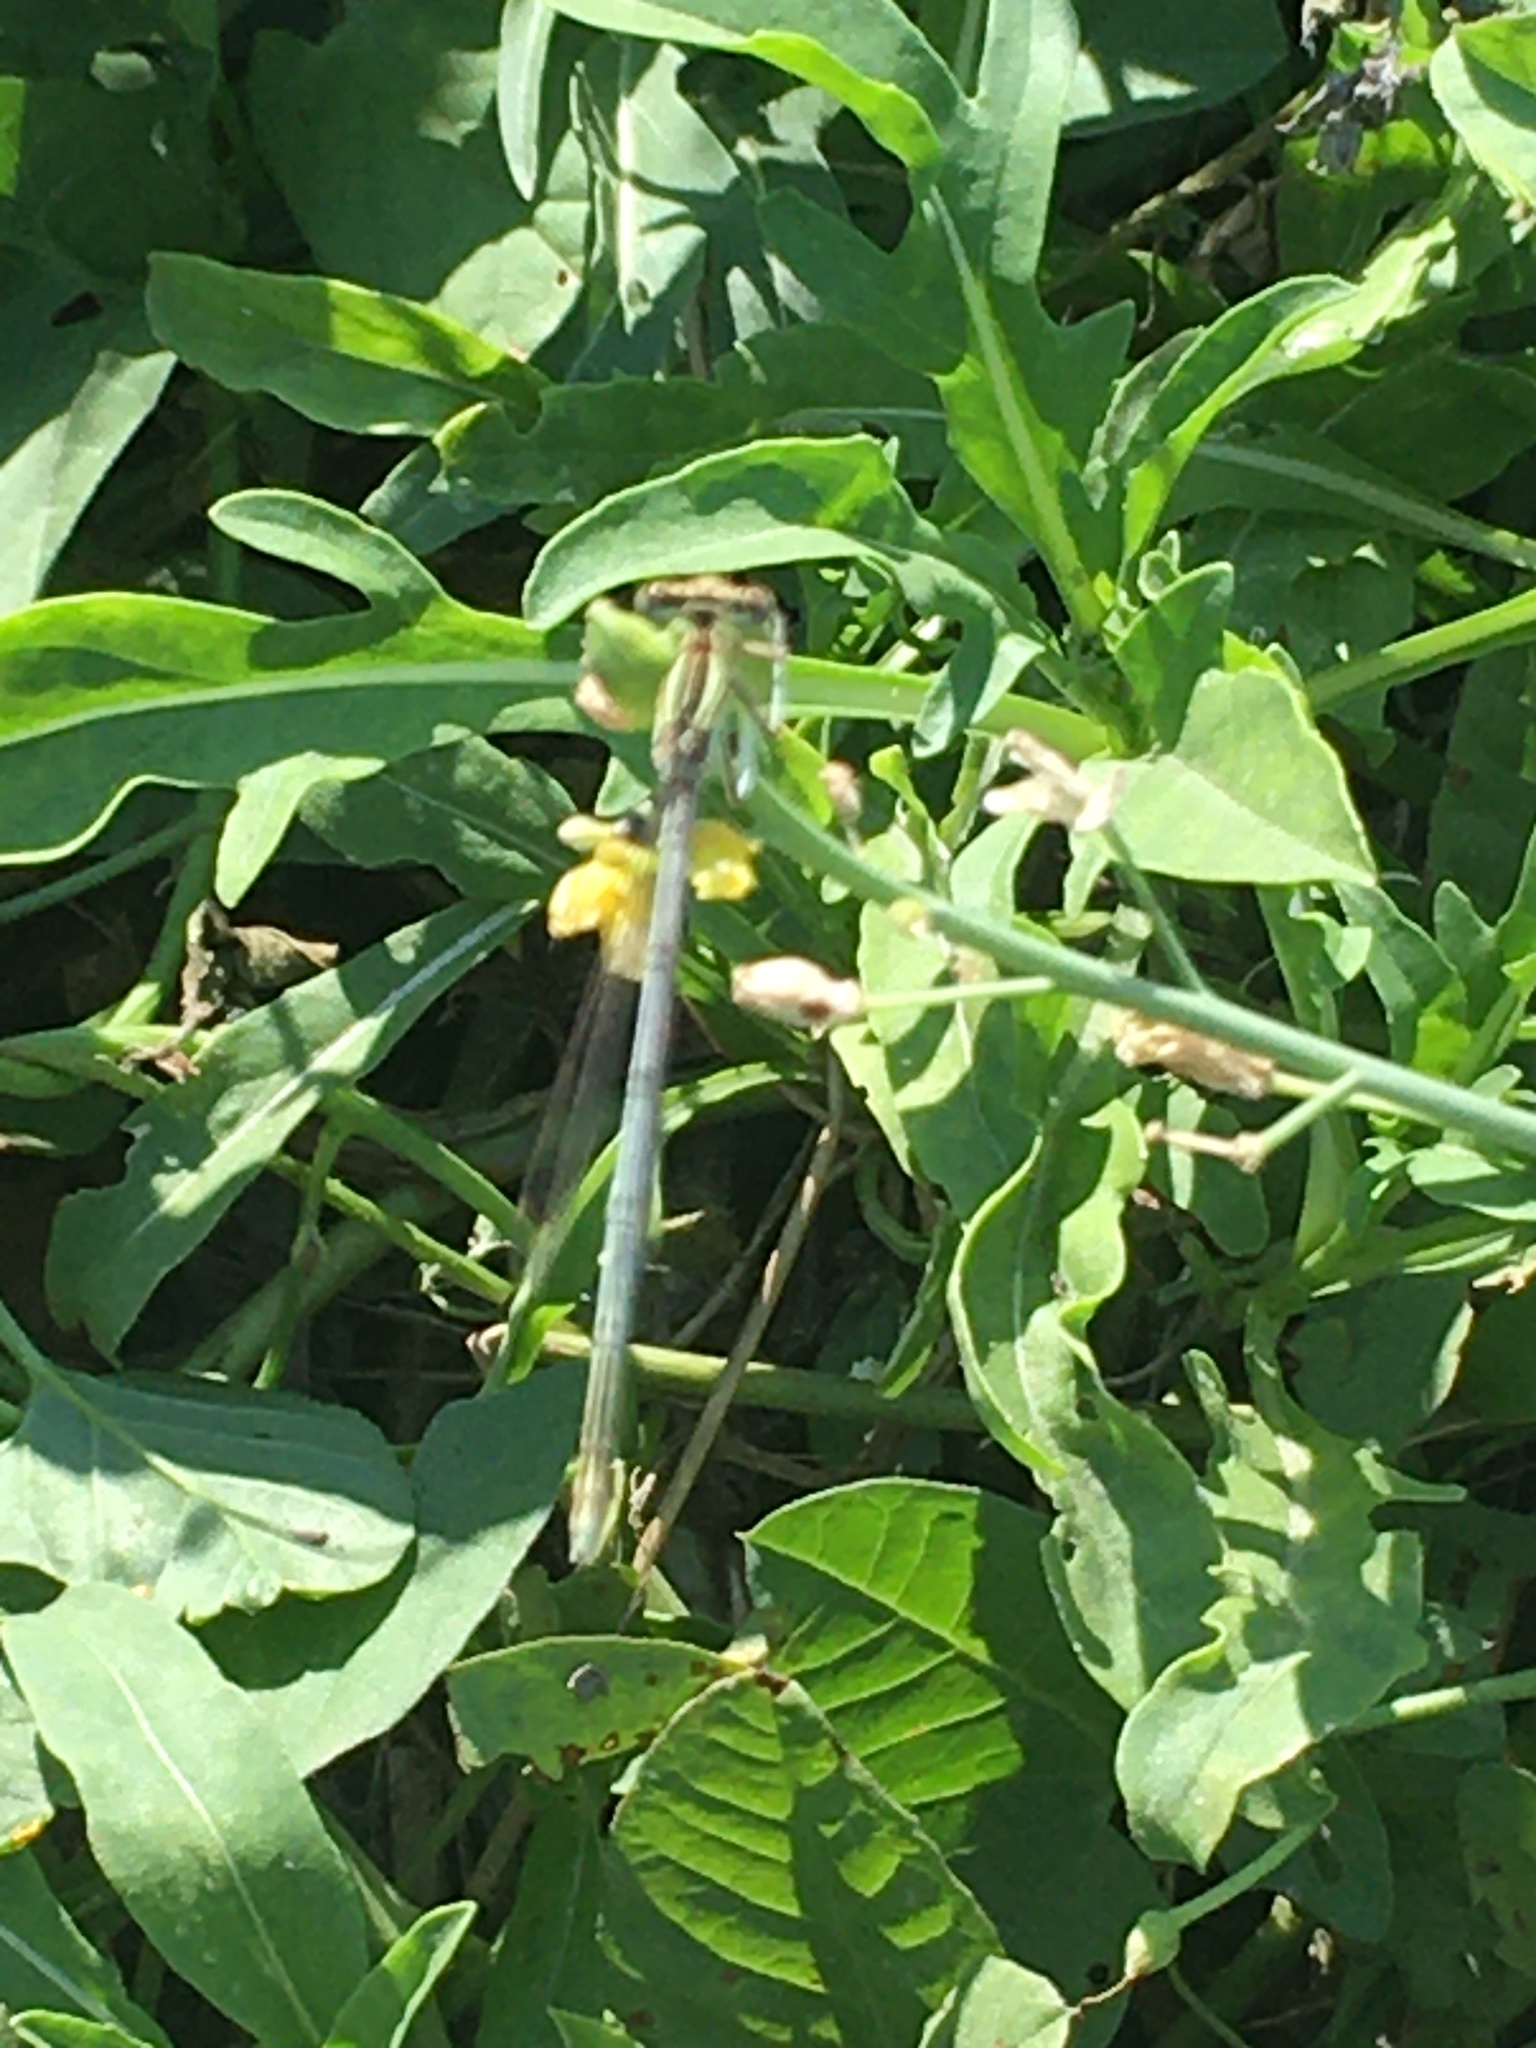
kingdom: Animalia
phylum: Arthropoda
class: Insecta
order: Odonata
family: Platycnemididae
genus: Platycnemis
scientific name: Platycnemis pennipes
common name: White-legged damselfly
